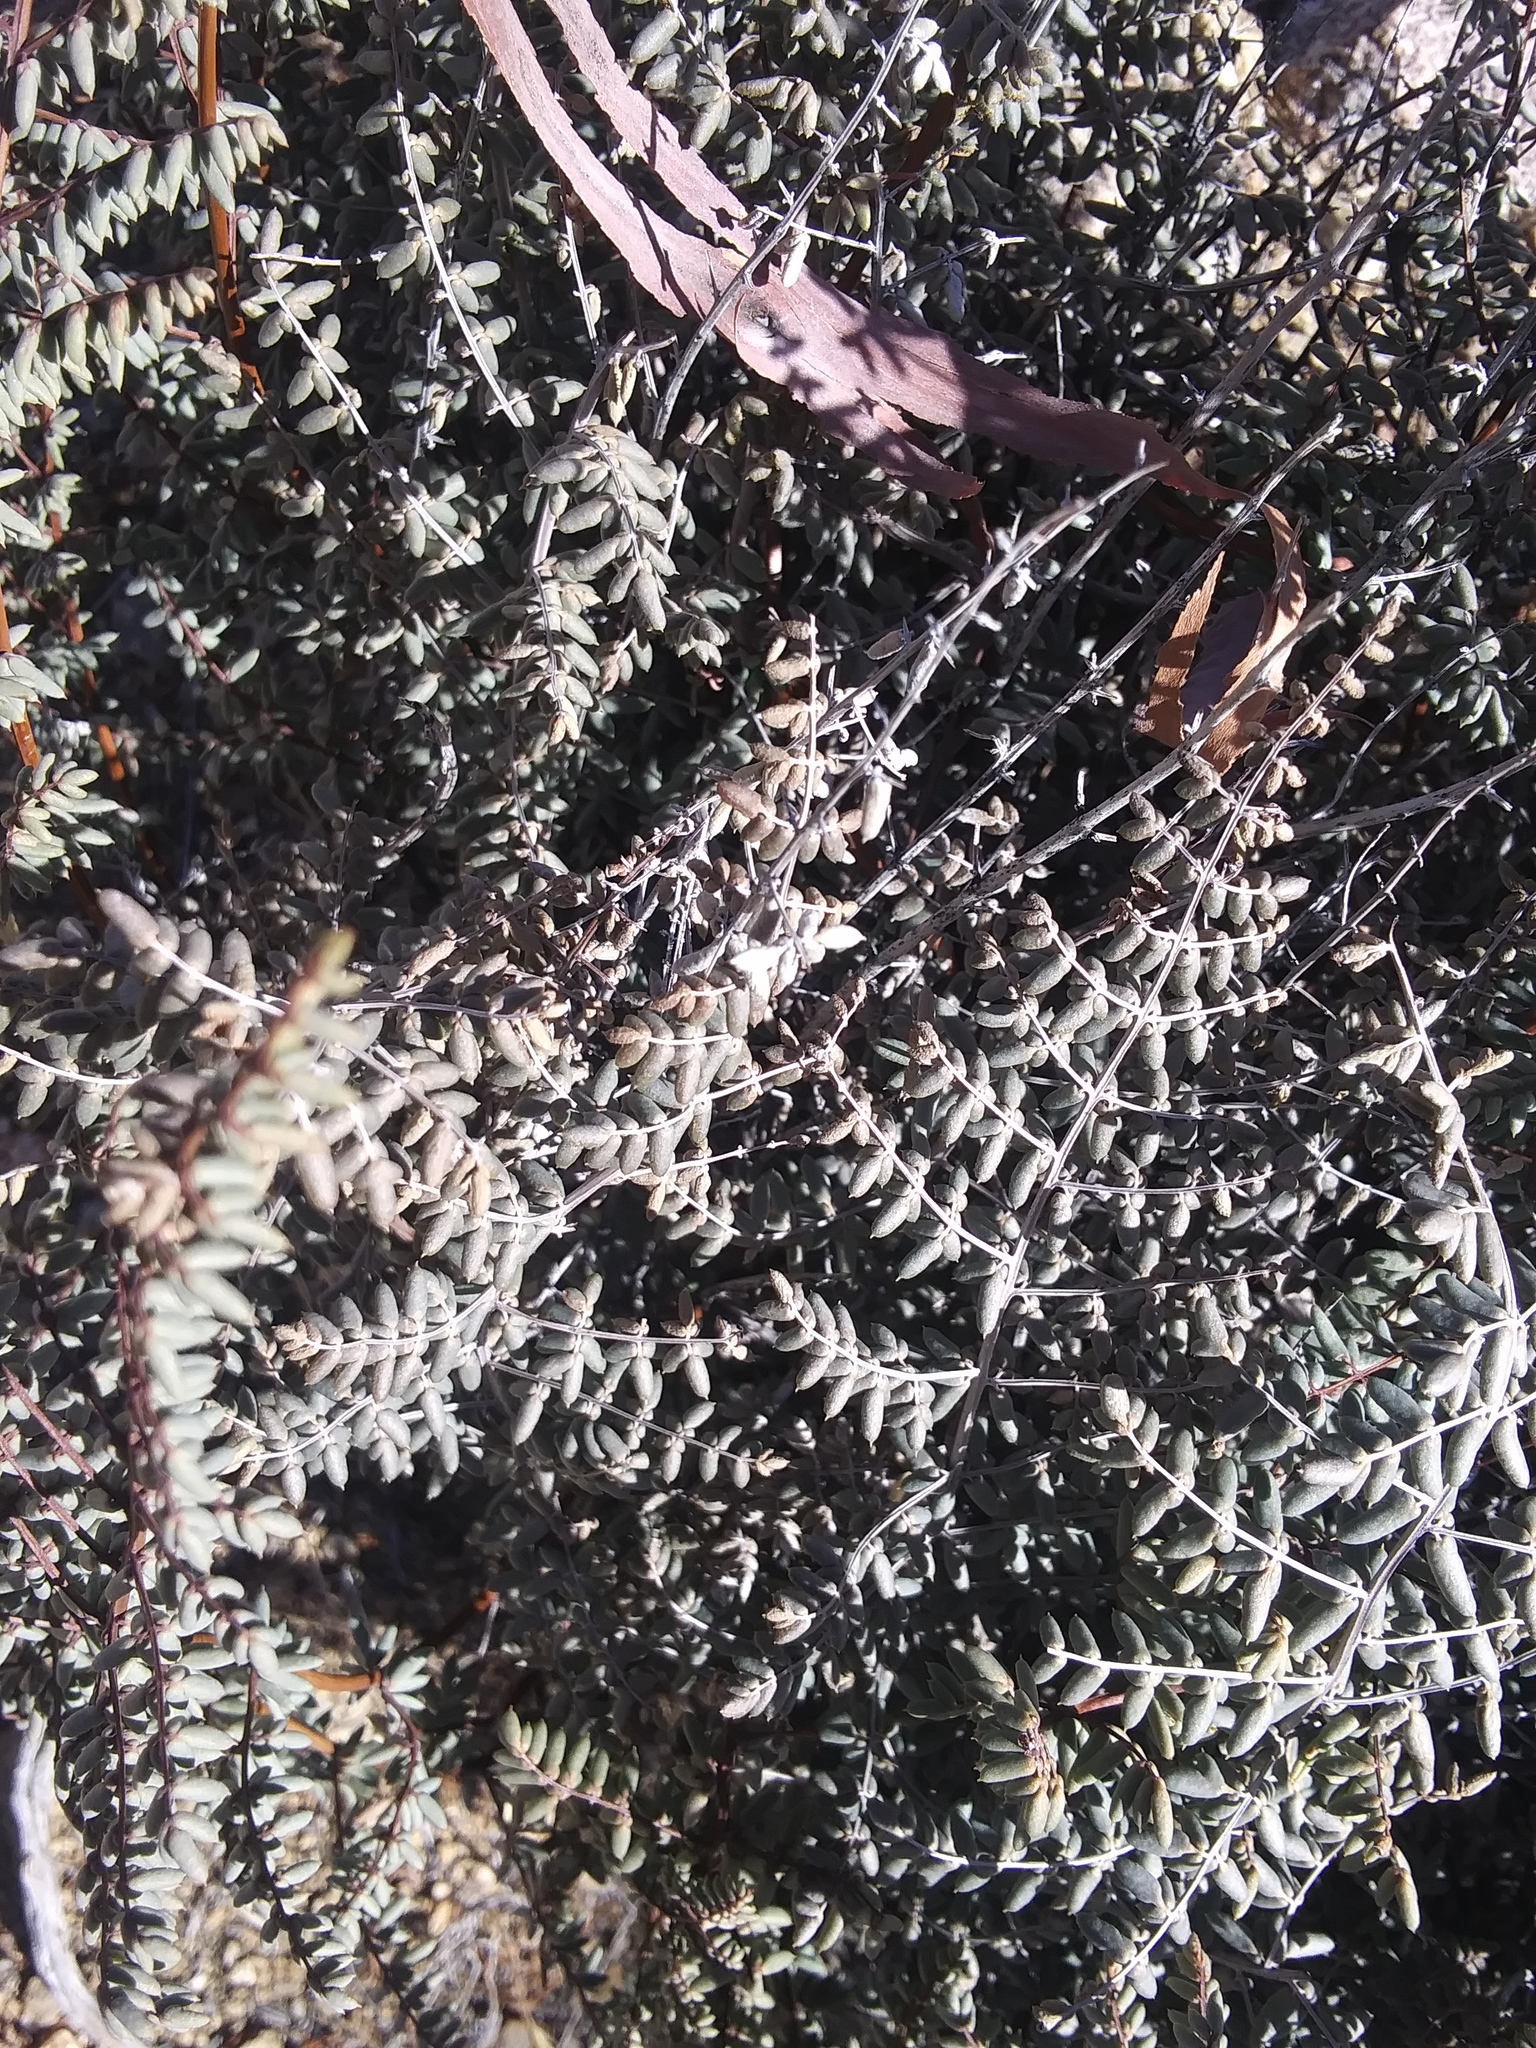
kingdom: Plantae
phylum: Tracheophyta
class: Polypodiopsida
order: Polypodiales
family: Pteridaceae
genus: Pellaea
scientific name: Pellaea mucronata
